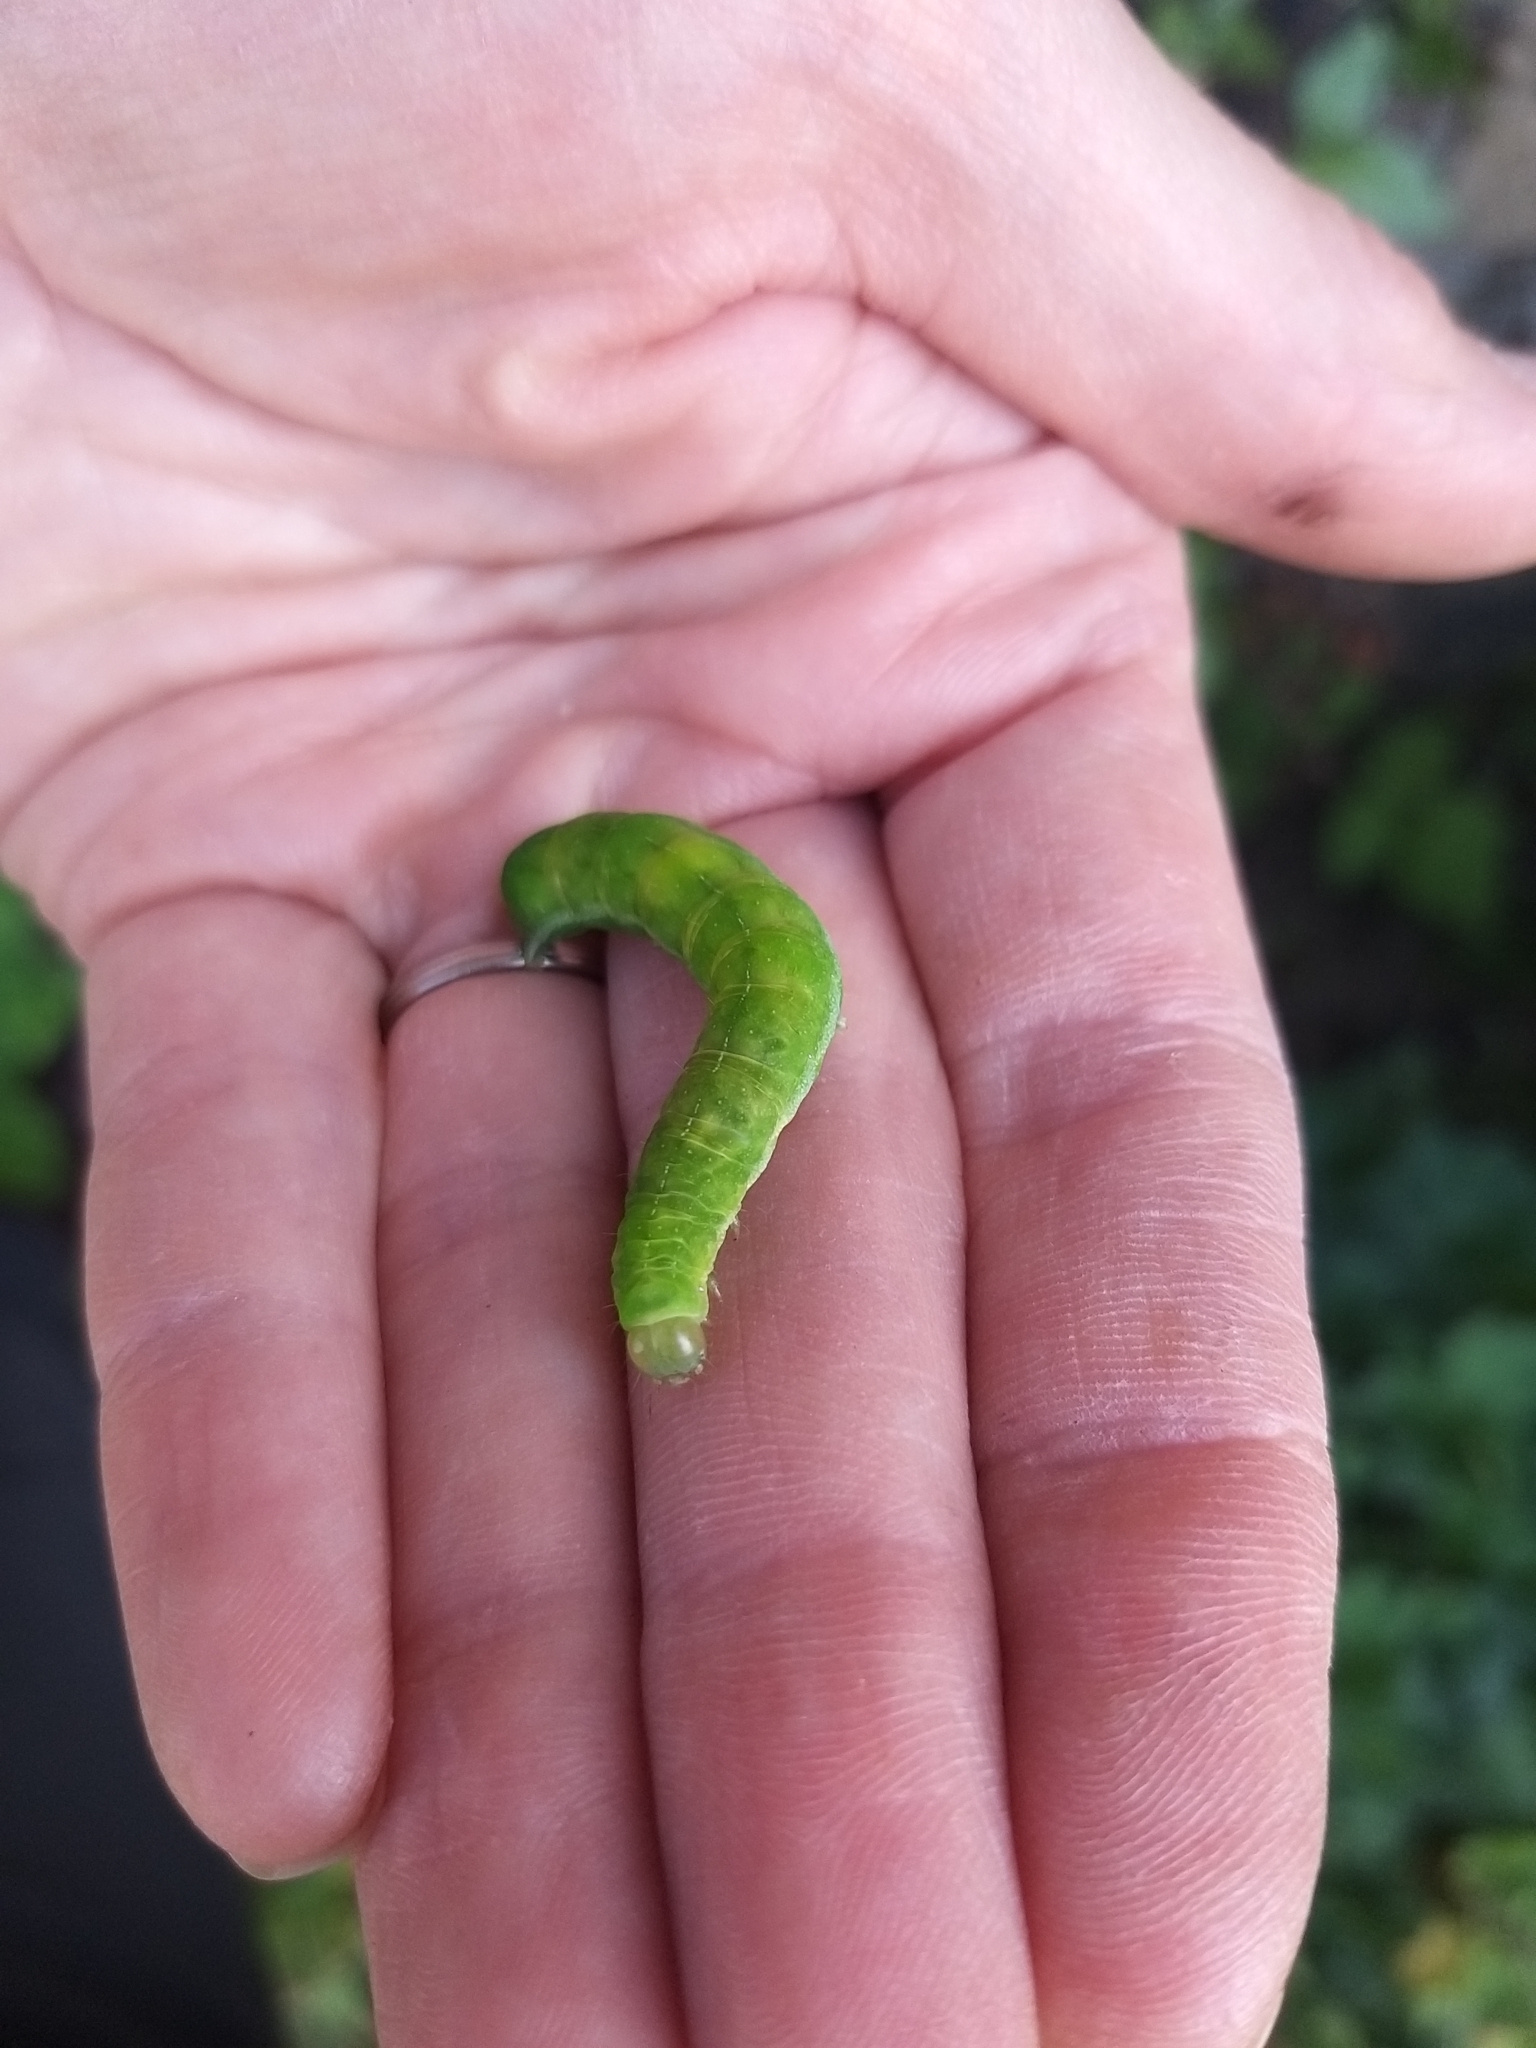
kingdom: Animalia
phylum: Arthropoda
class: Insecta
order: Lepidoptera
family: Noctuidae
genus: Phlogophora
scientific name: Phlogophora meticulosa
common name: Angle shades
